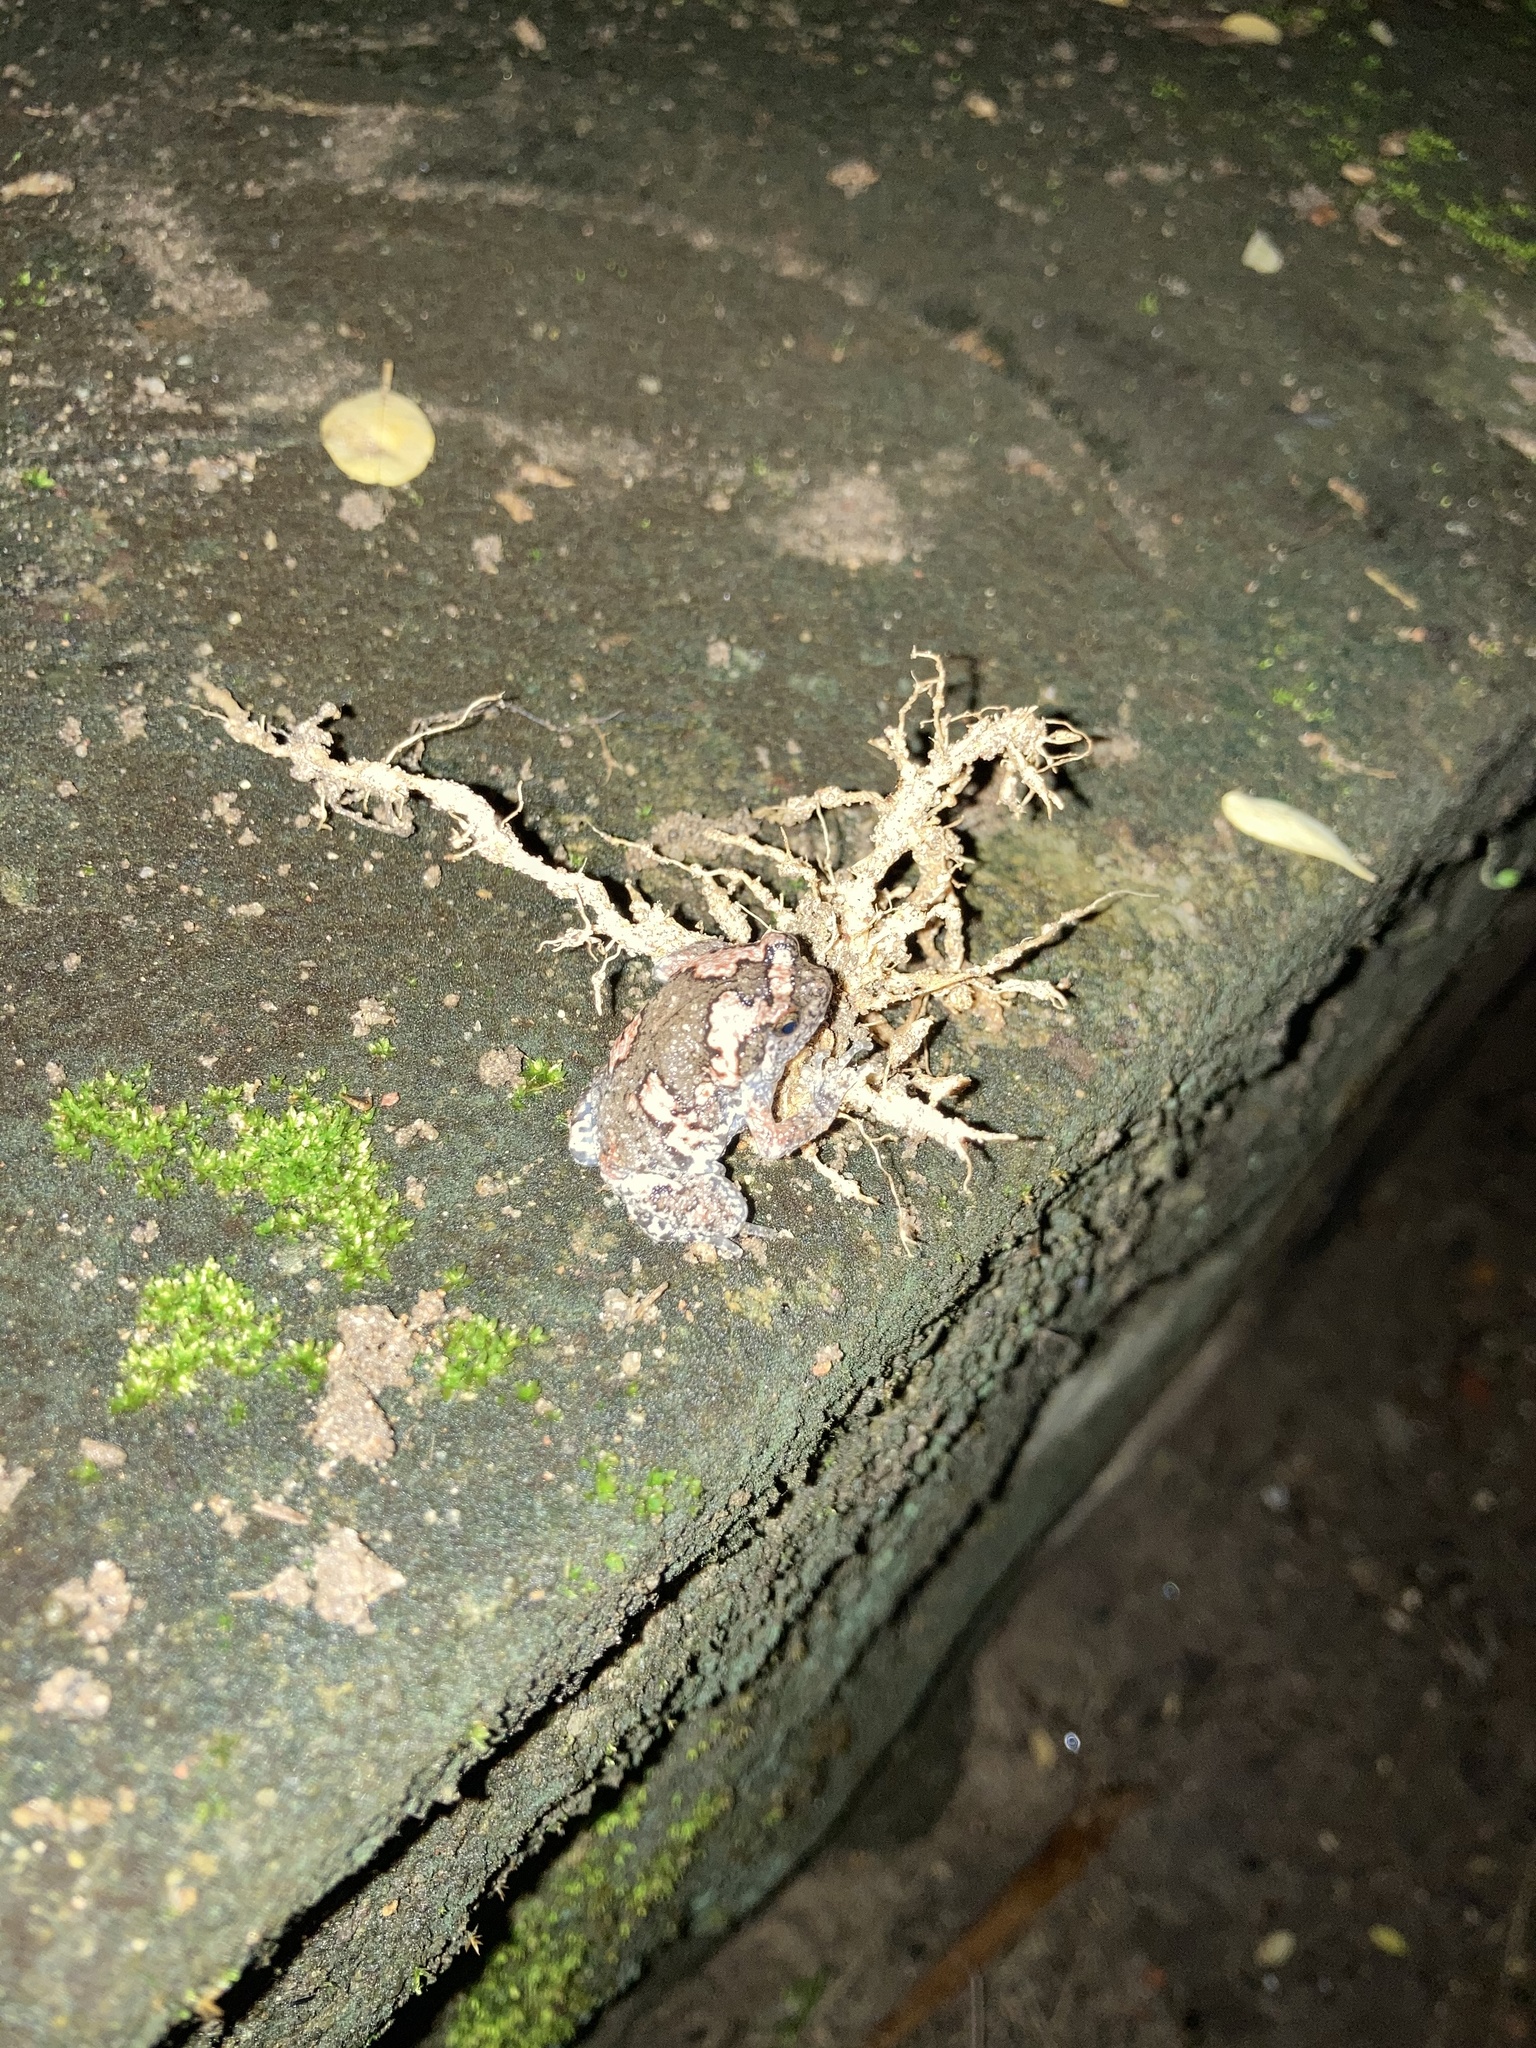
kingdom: Animalia
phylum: Chordata
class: Amphibia
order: Anura
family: Microhylidae
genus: Uperodon
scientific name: Uperodon taprobanicus
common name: Ceylon kaloula
